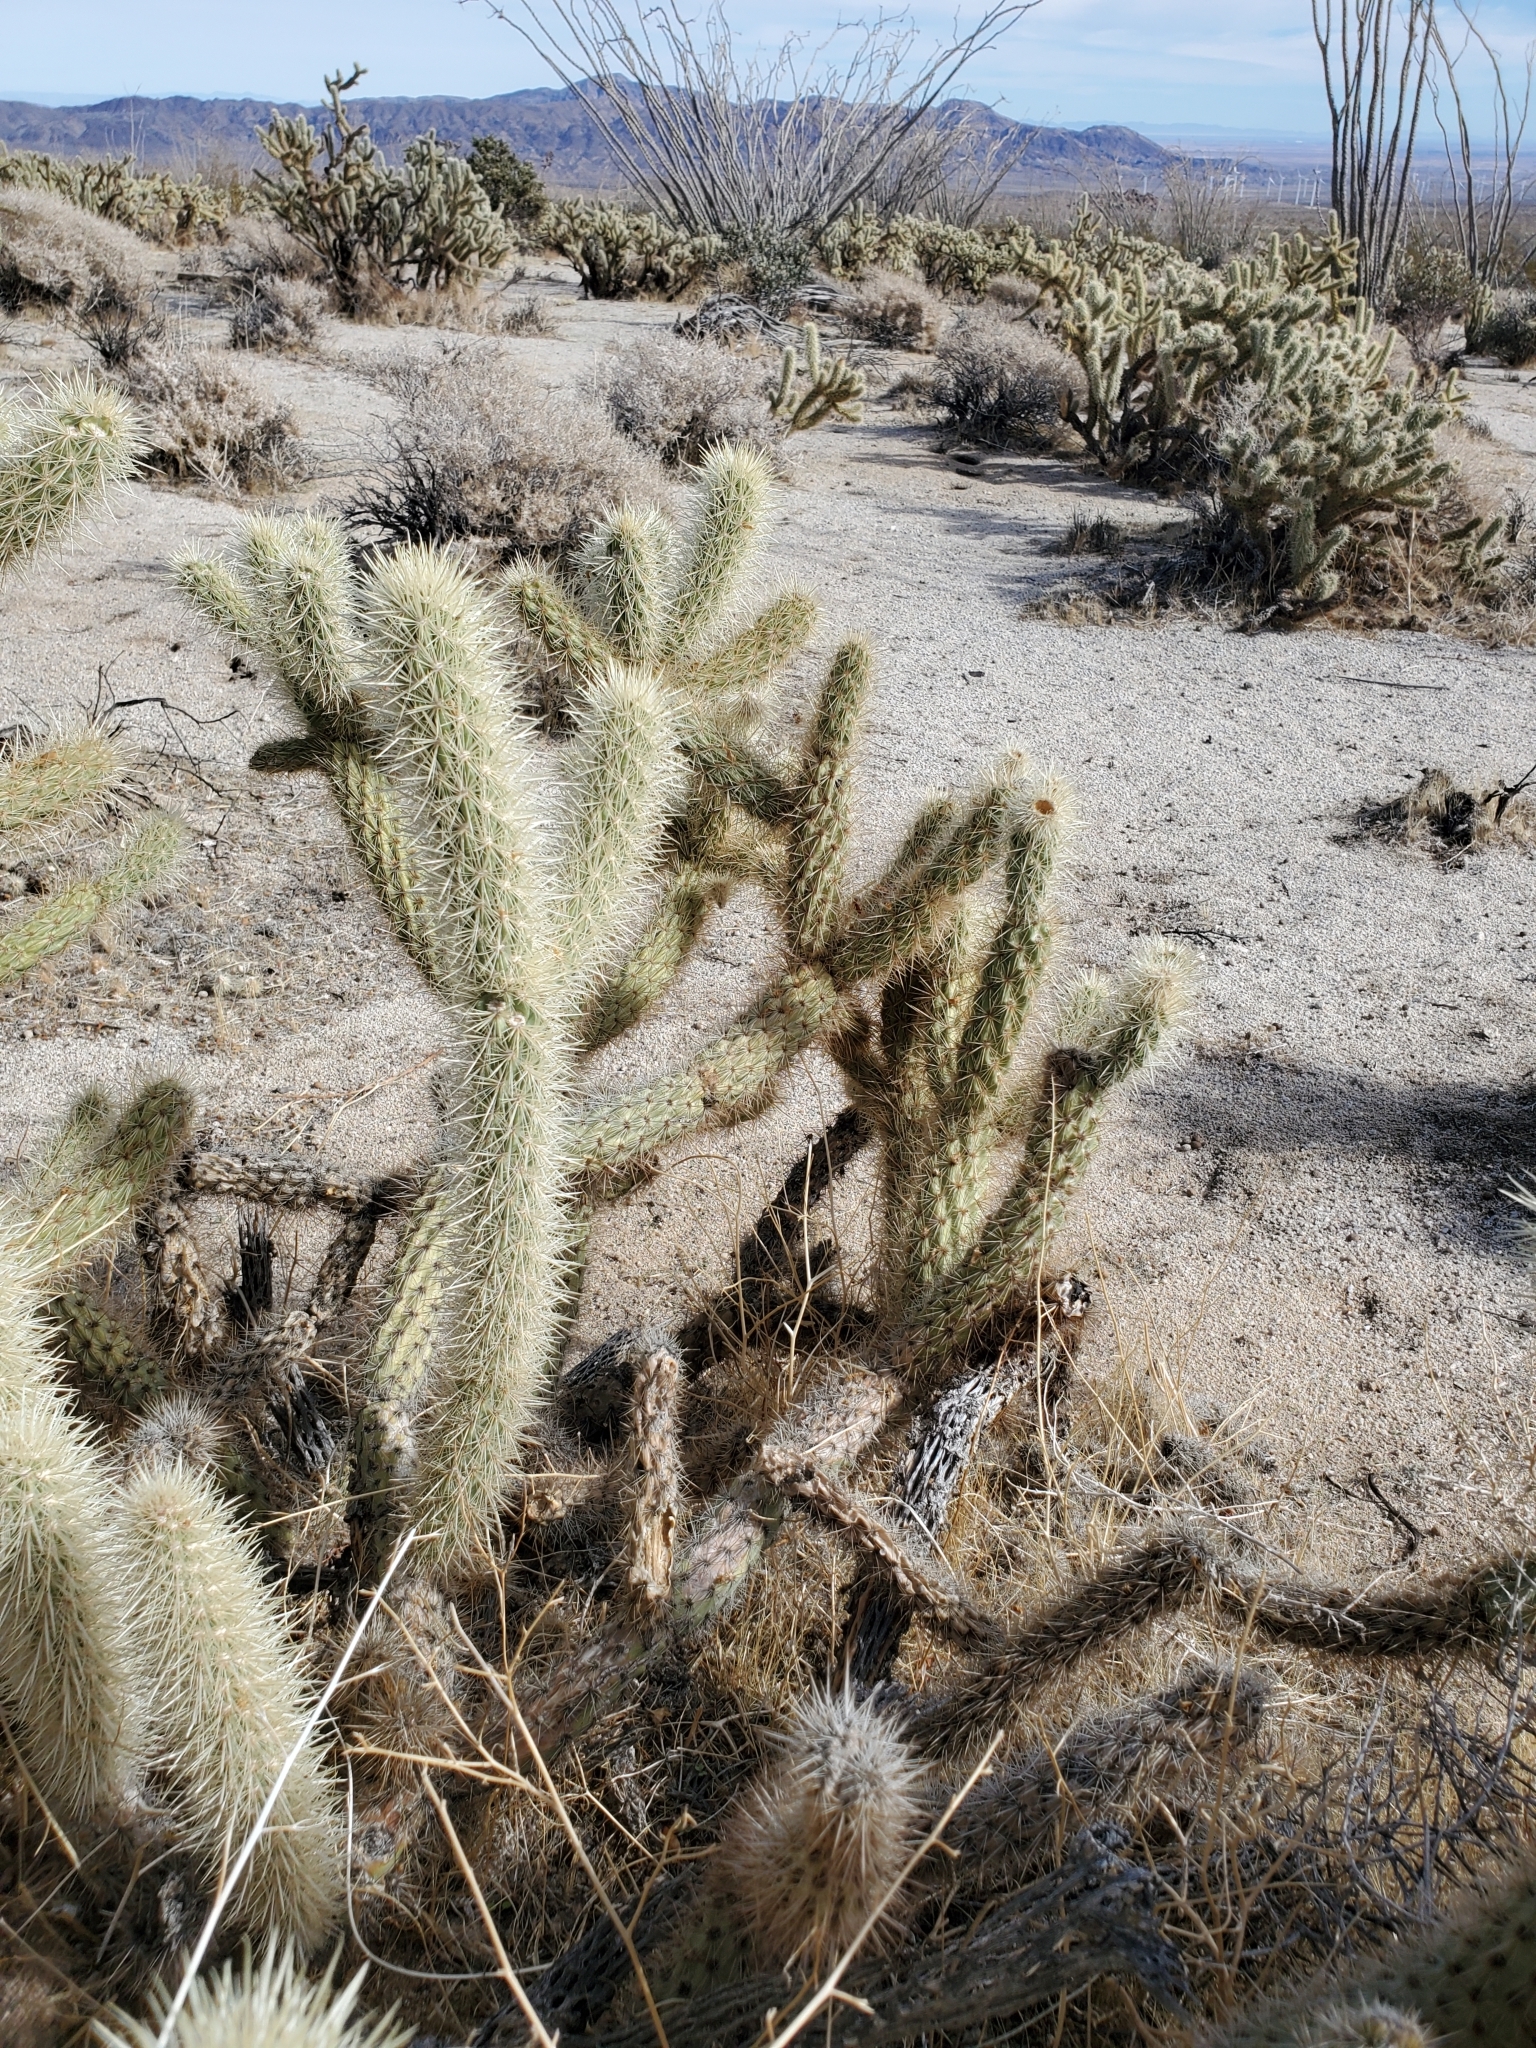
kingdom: Plantae
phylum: Tracheophyta
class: Magnoliopsida
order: Caryophyllales
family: Cactaceae
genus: Cylindropuntia
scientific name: Cylindropuntia ganderi
